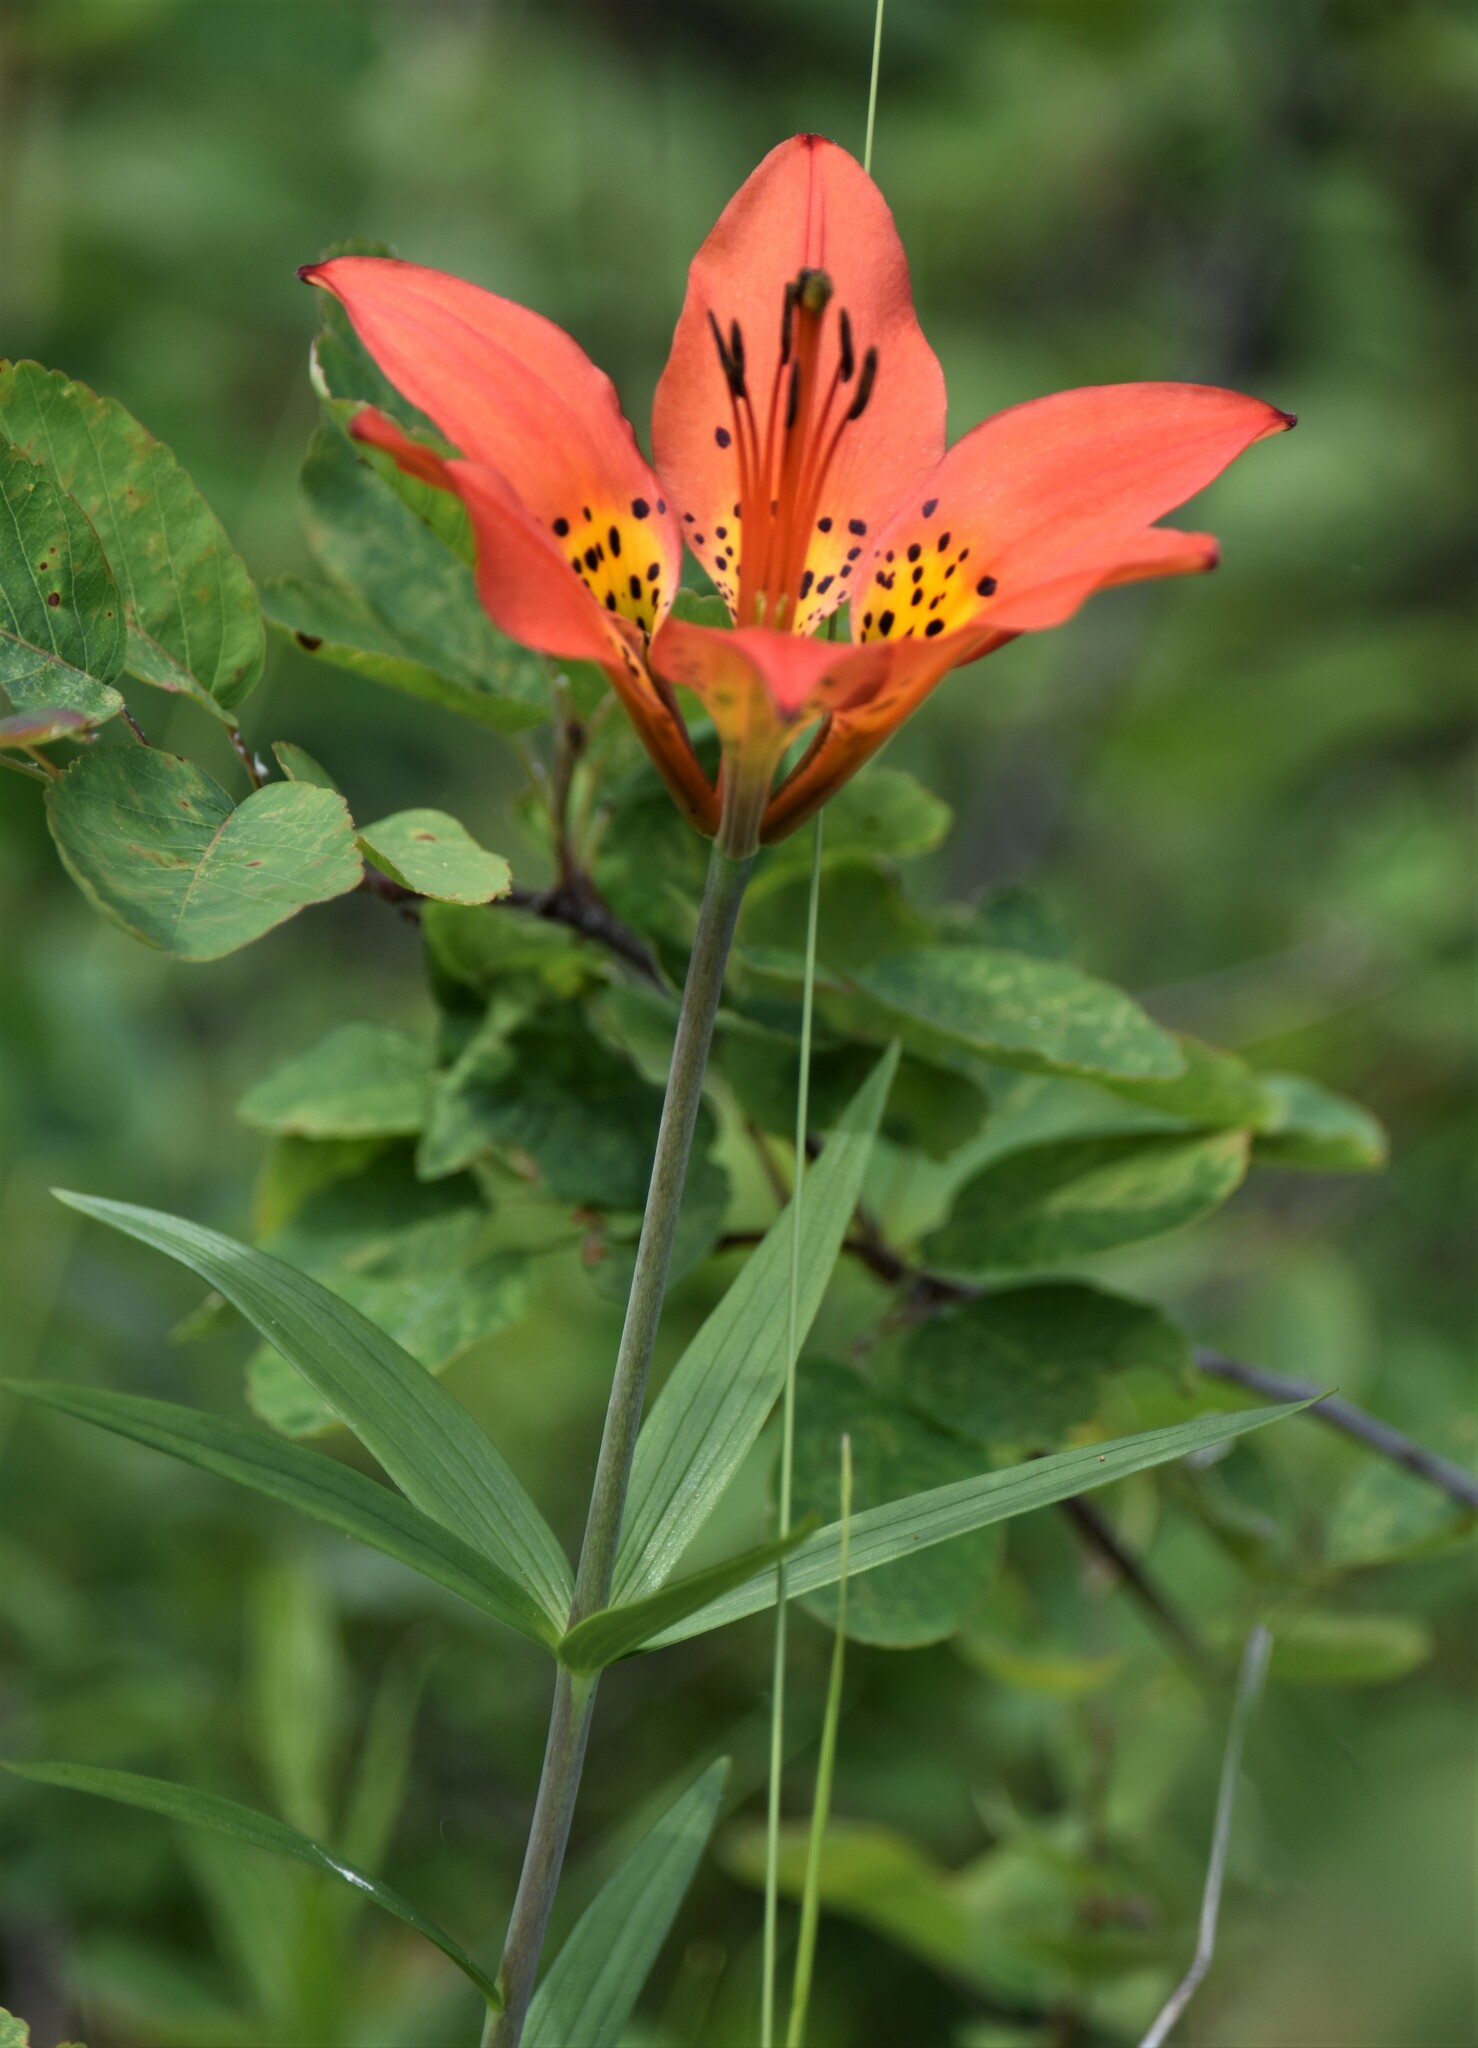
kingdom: Plantae
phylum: Tracheophyta
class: Liliopsida
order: Liliales
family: Liliaceae
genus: Lilium
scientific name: Lilium philadelphicum
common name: Red lily
